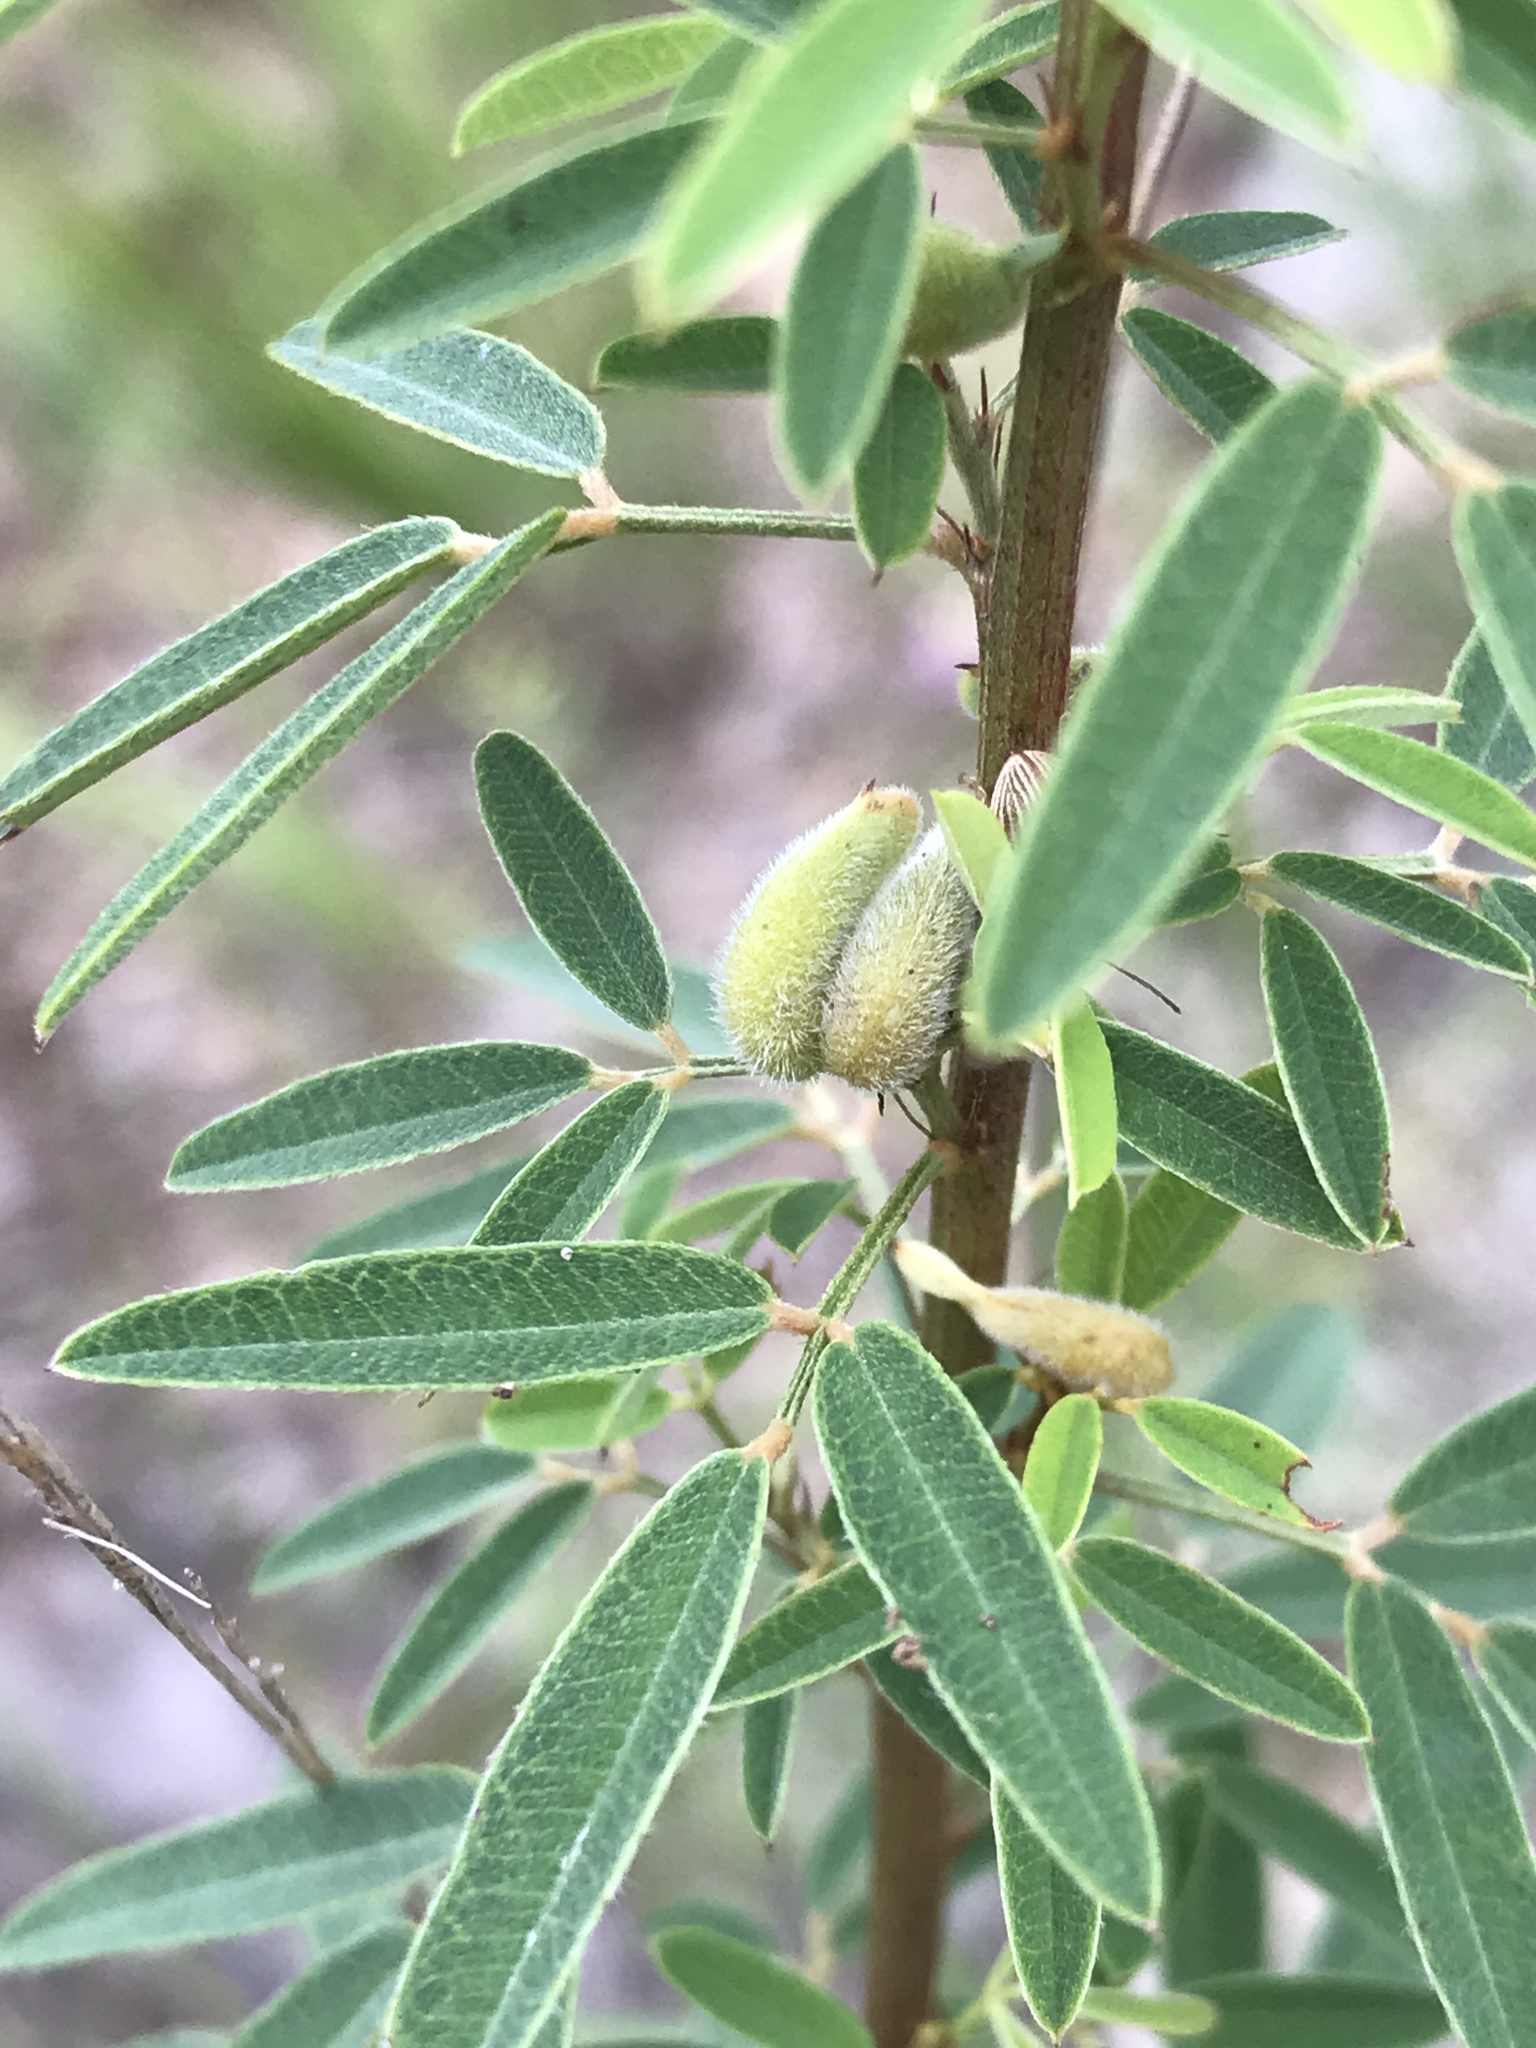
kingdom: Plantae
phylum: Tracheophyta
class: Magnoliopsida
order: Fabales
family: Fabaceae
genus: Lespedeza
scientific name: Lespedeza virginica
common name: Slender bush-clover
